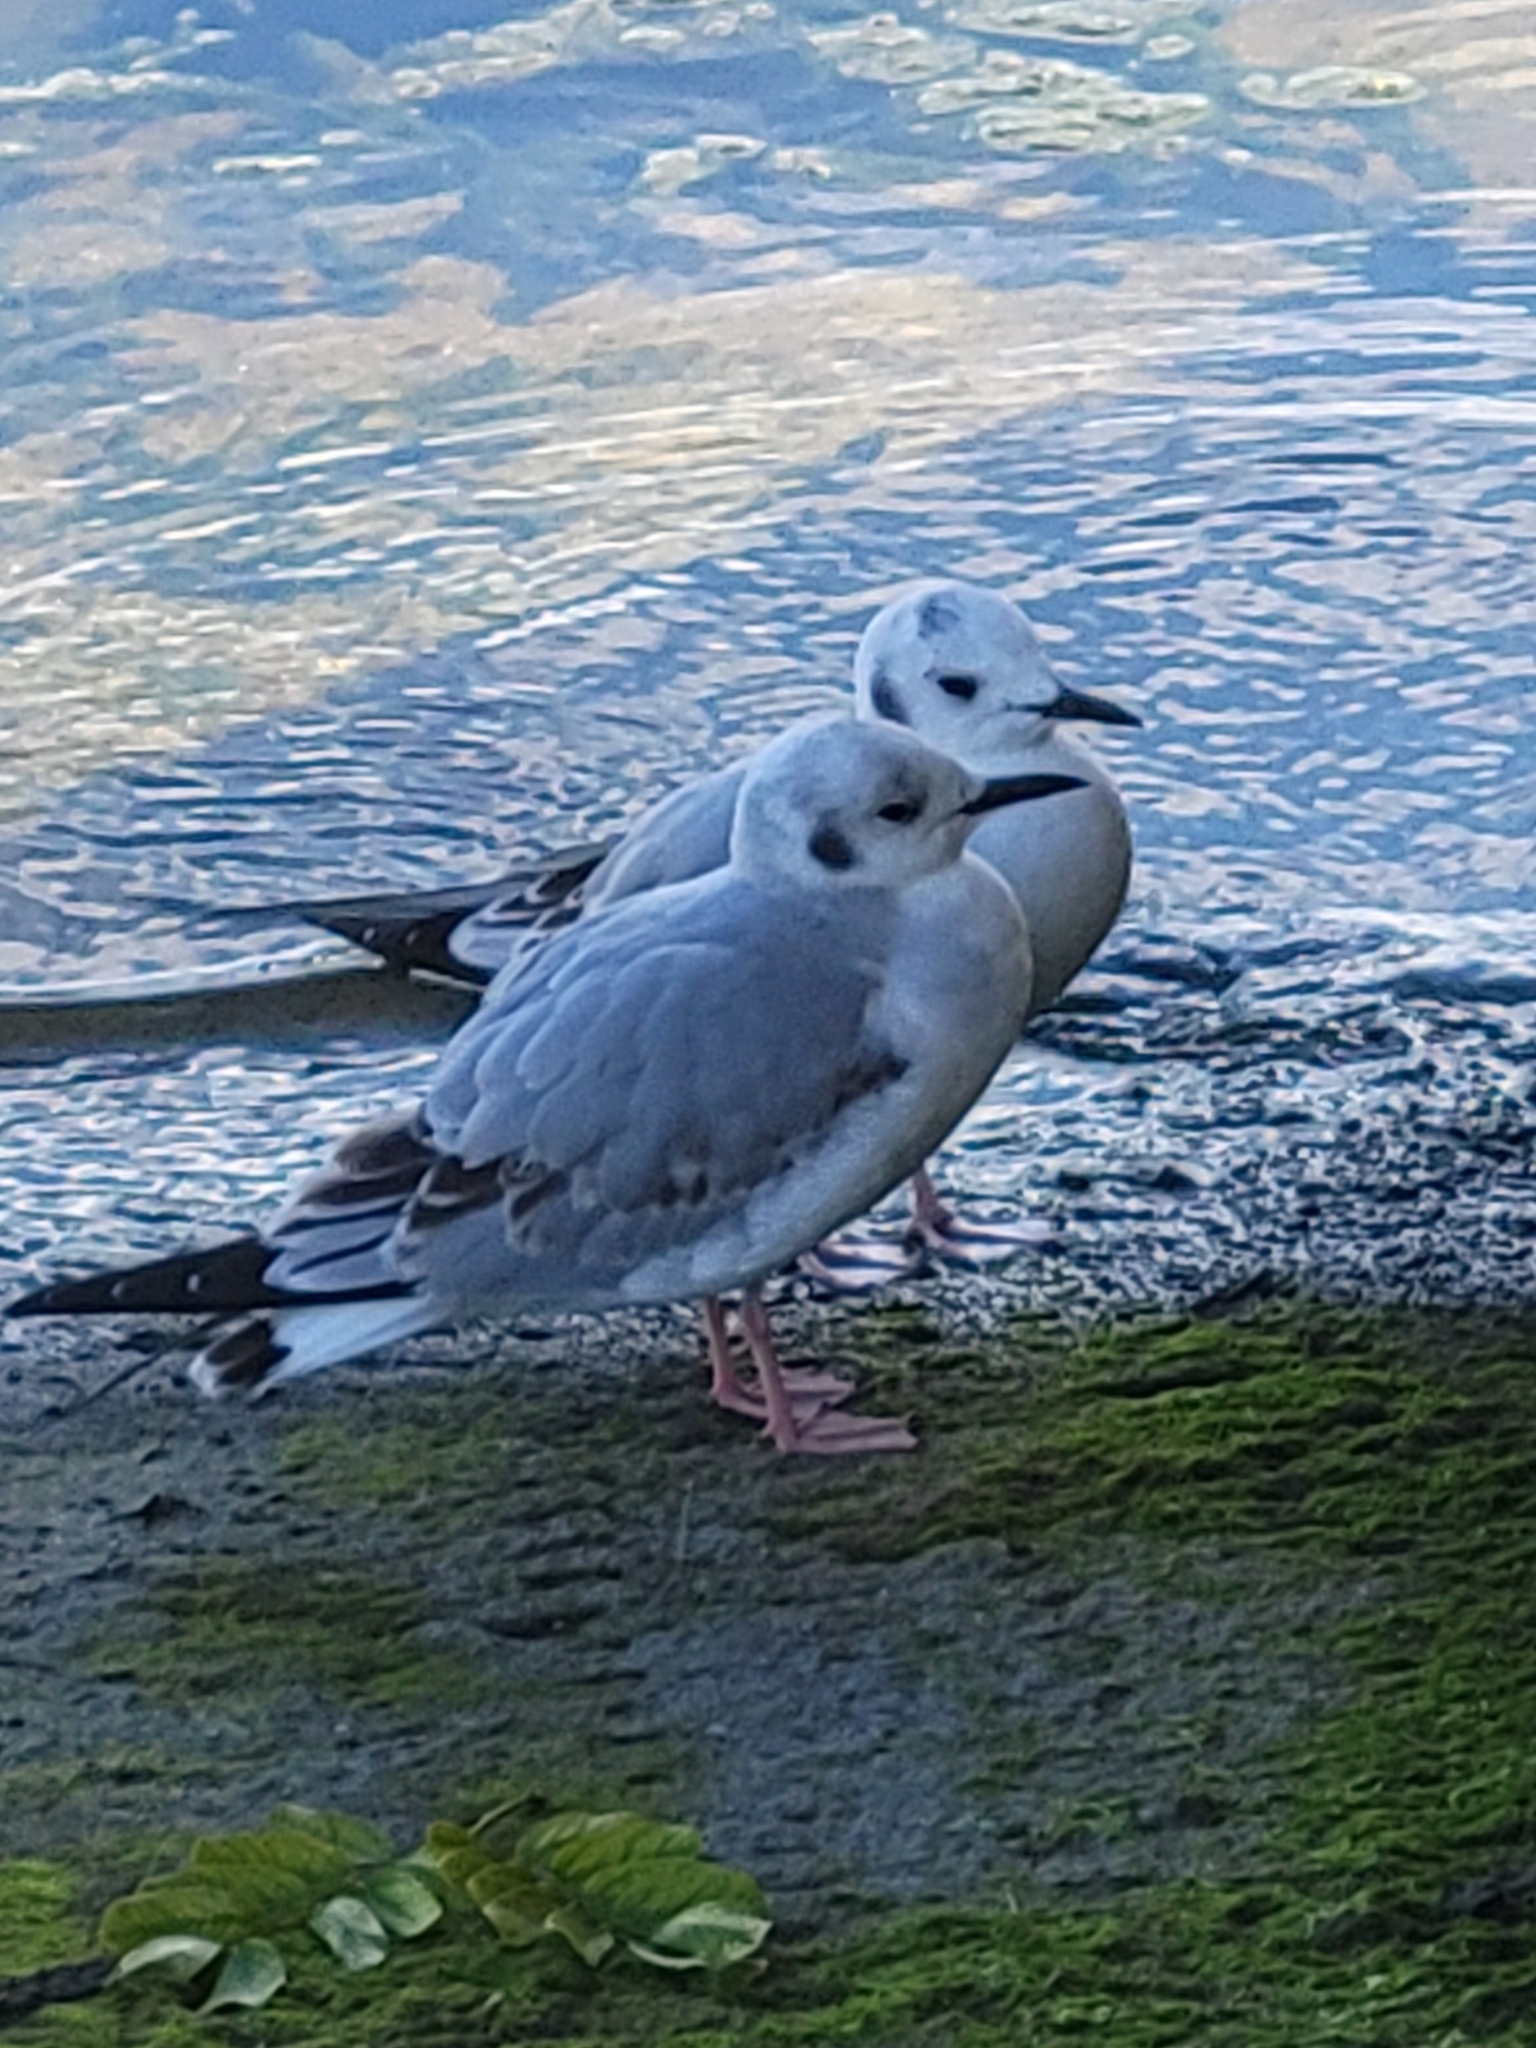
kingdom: Animalia
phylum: Chordata
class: Aves
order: Charadriiformes
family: Laridae
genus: Chroicocephalus
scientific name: Chroicocephalus philadelphia
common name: Bonaparte's gull
